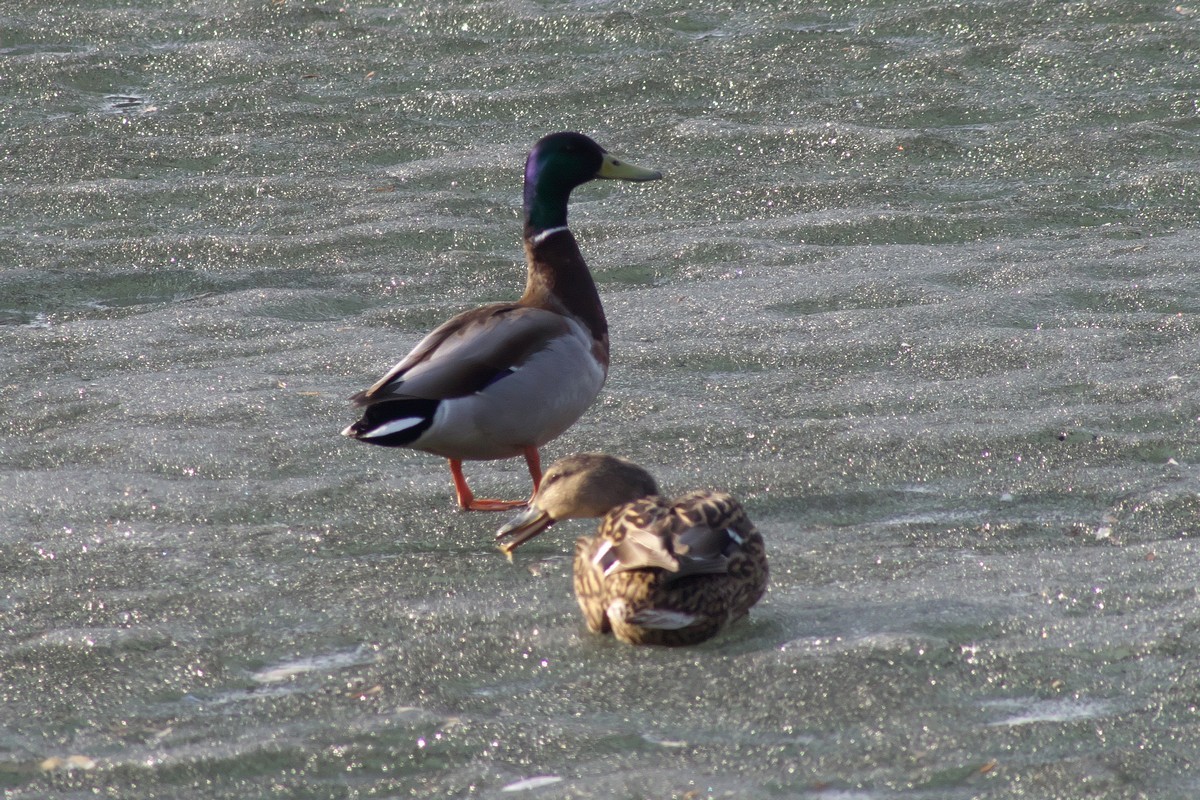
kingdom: Animalia
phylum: Chordata
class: Aves
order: Anseriformes
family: Anatidae
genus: Anas
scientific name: Anas platyrhynchos
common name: Mallard
